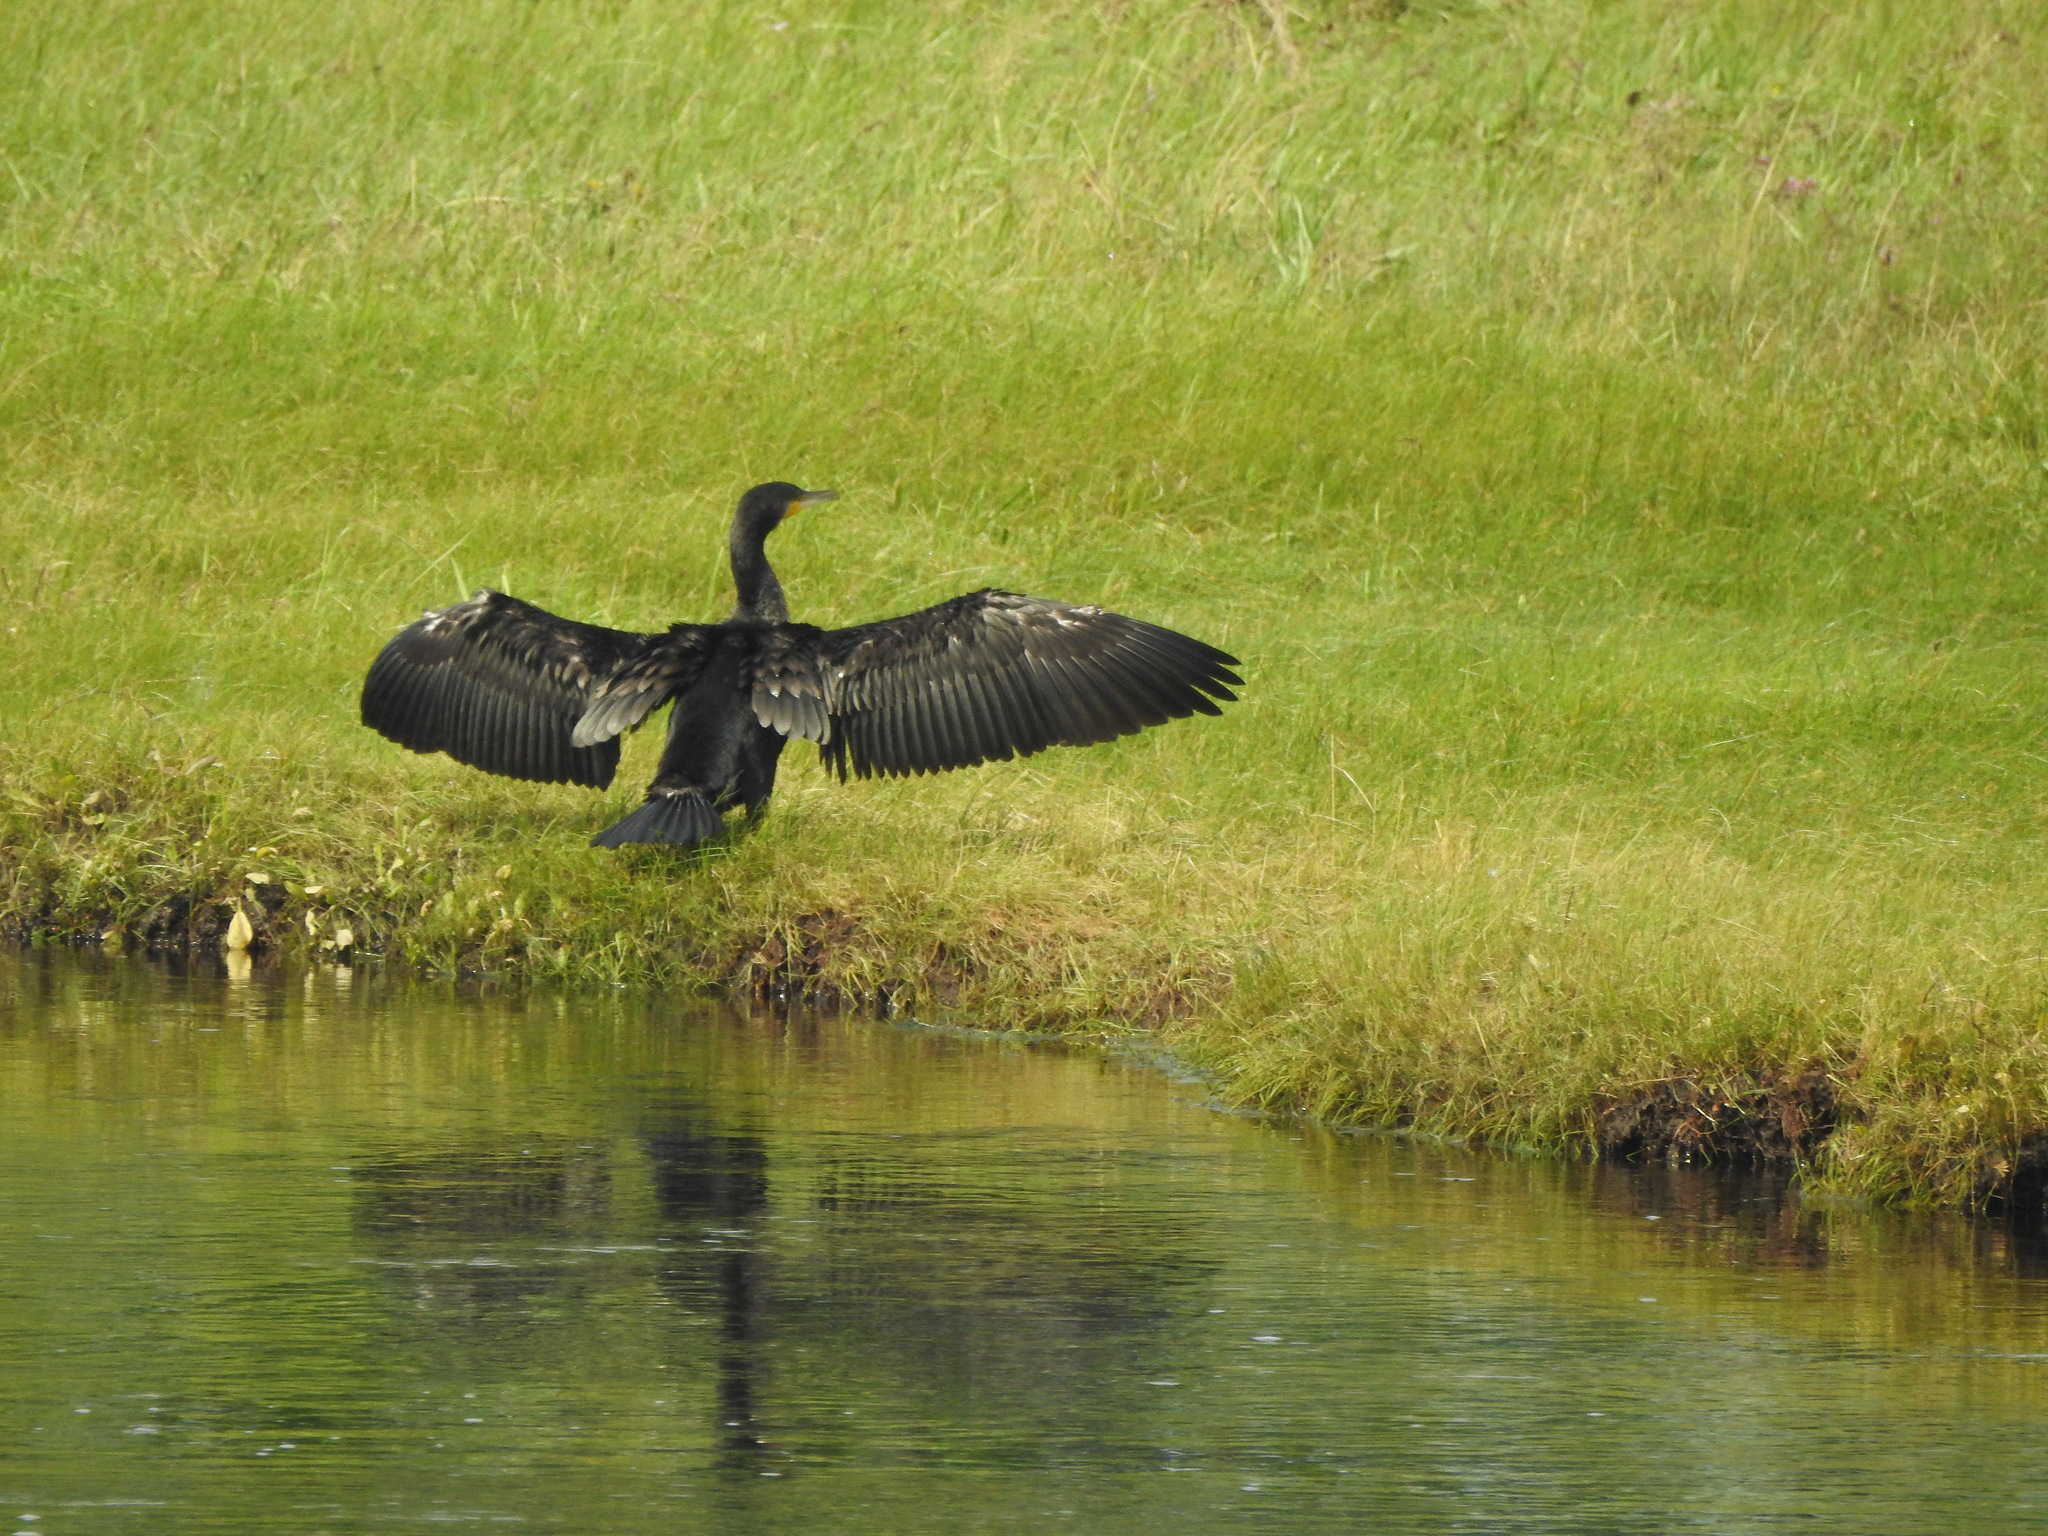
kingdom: Animalia
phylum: Chordata
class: Aves
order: Suliformes
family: Phalacrocoracidae
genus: Phalacrocorax
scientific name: Phalacrocorax carbo
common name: Great cormorant
